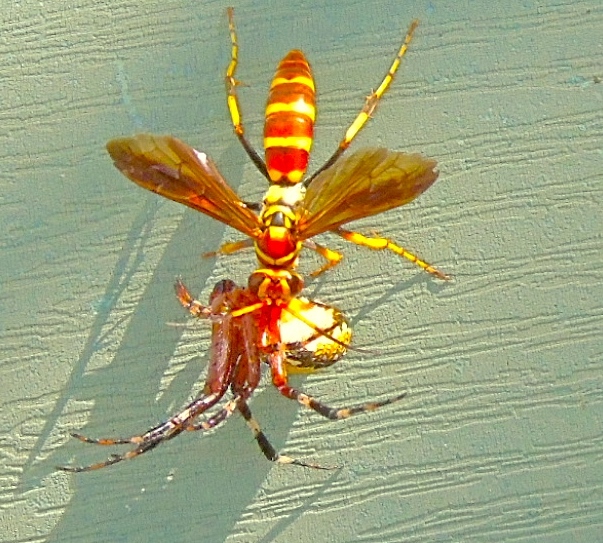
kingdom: Animalia
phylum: Arthropoda
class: Insecta
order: Hymenoptera
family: Pompilidae
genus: Poecilopompilus
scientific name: Poecilopompilus
